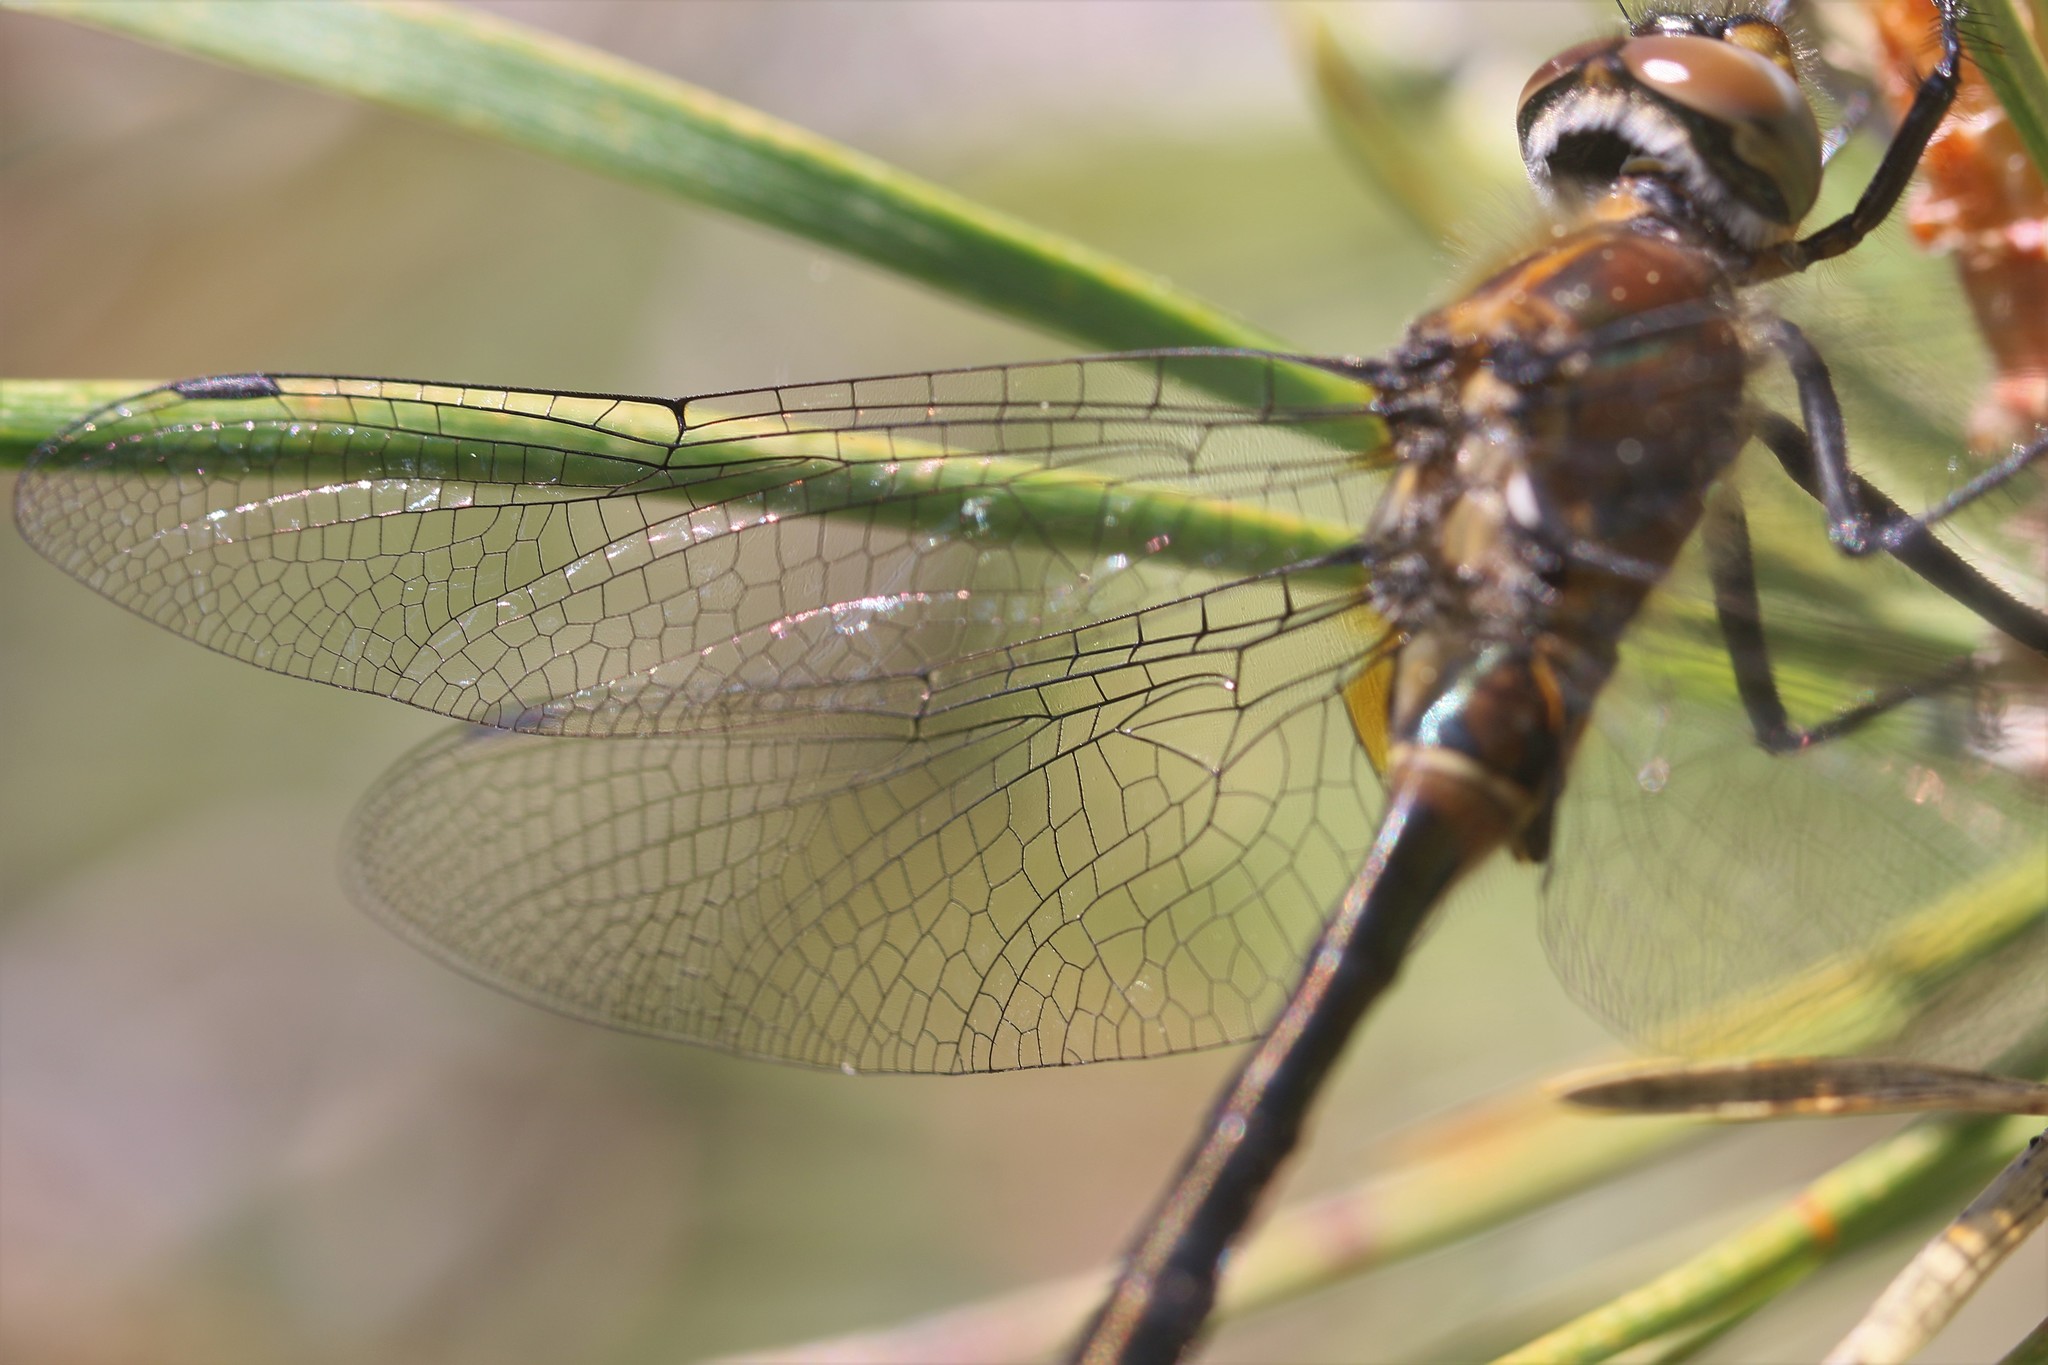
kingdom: Animalia
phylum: Arthropoda
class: Insecta
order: Odonata
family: Corduliidae
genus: Cordulia
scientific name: Cordulia shurtleffii
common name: American emerald
